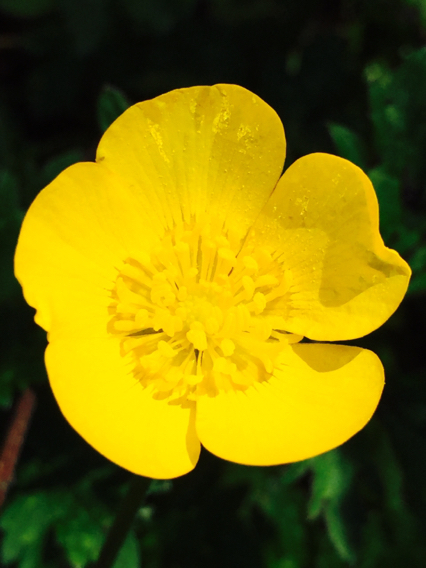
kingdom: Plantae
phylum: Tracheophyta
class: Magnoliopsida
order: Ranunculales
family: Ranunculaceae
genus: Ranunculus
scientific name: Ranunculus repens
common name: Creeping buttercup
